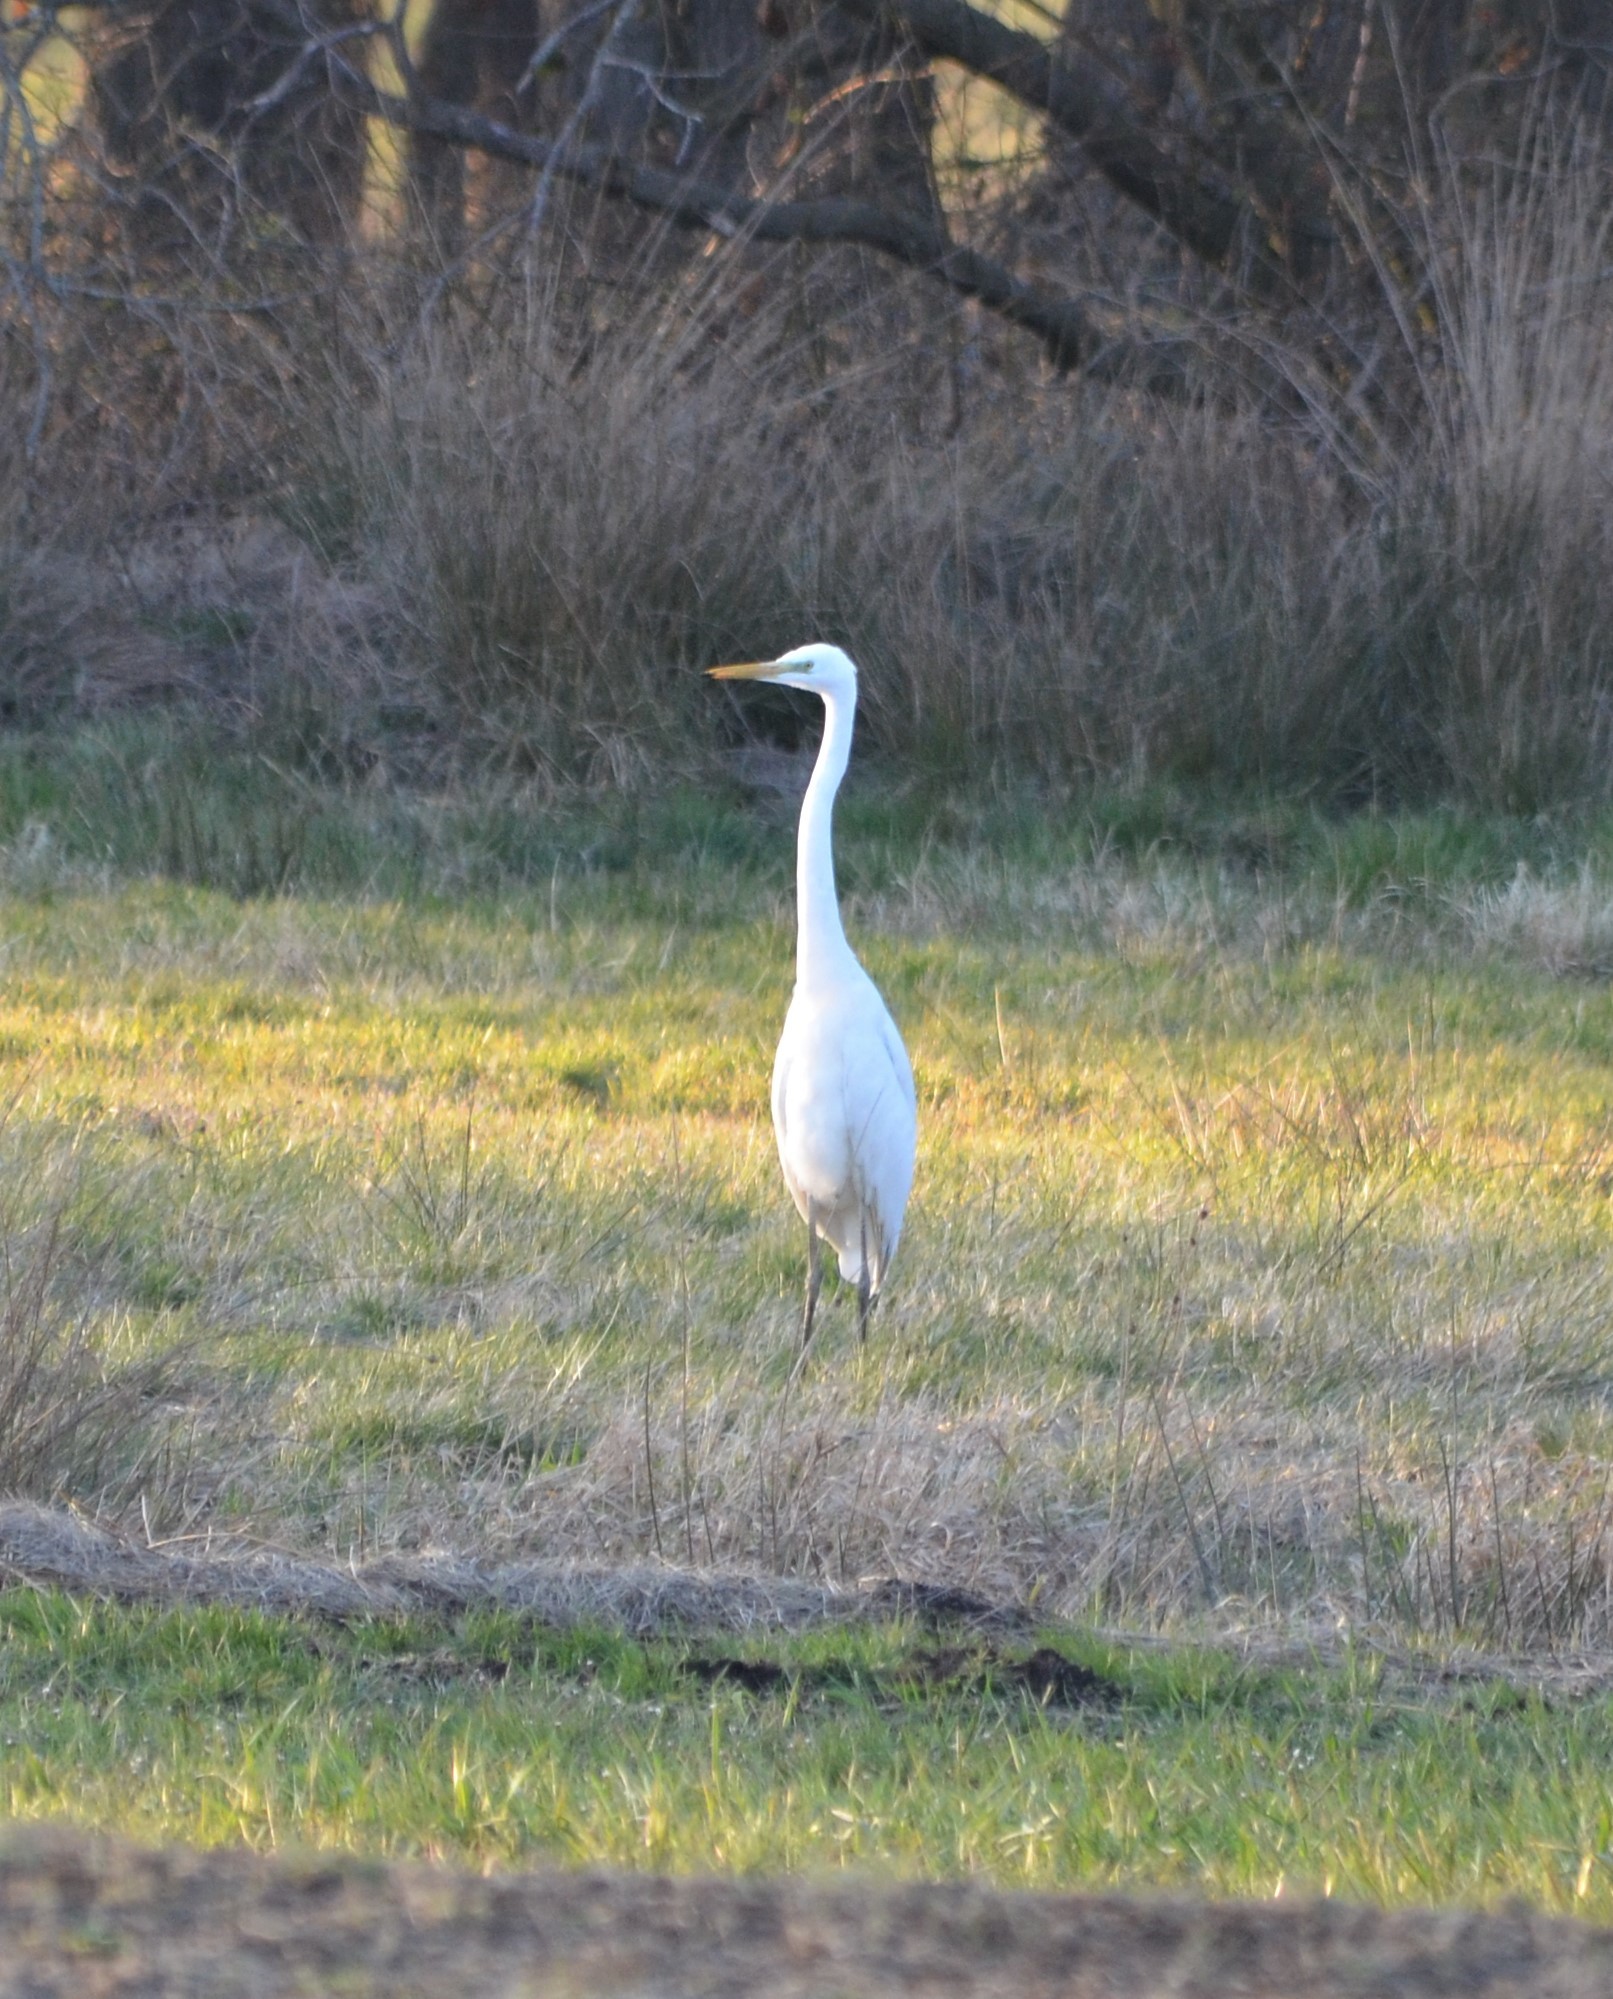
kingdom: Animalia
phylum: Chordata
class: Aves
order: Pelecaniformes
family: Ardeidae
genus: Ardea
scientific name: Ardea alba
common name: Great egret
